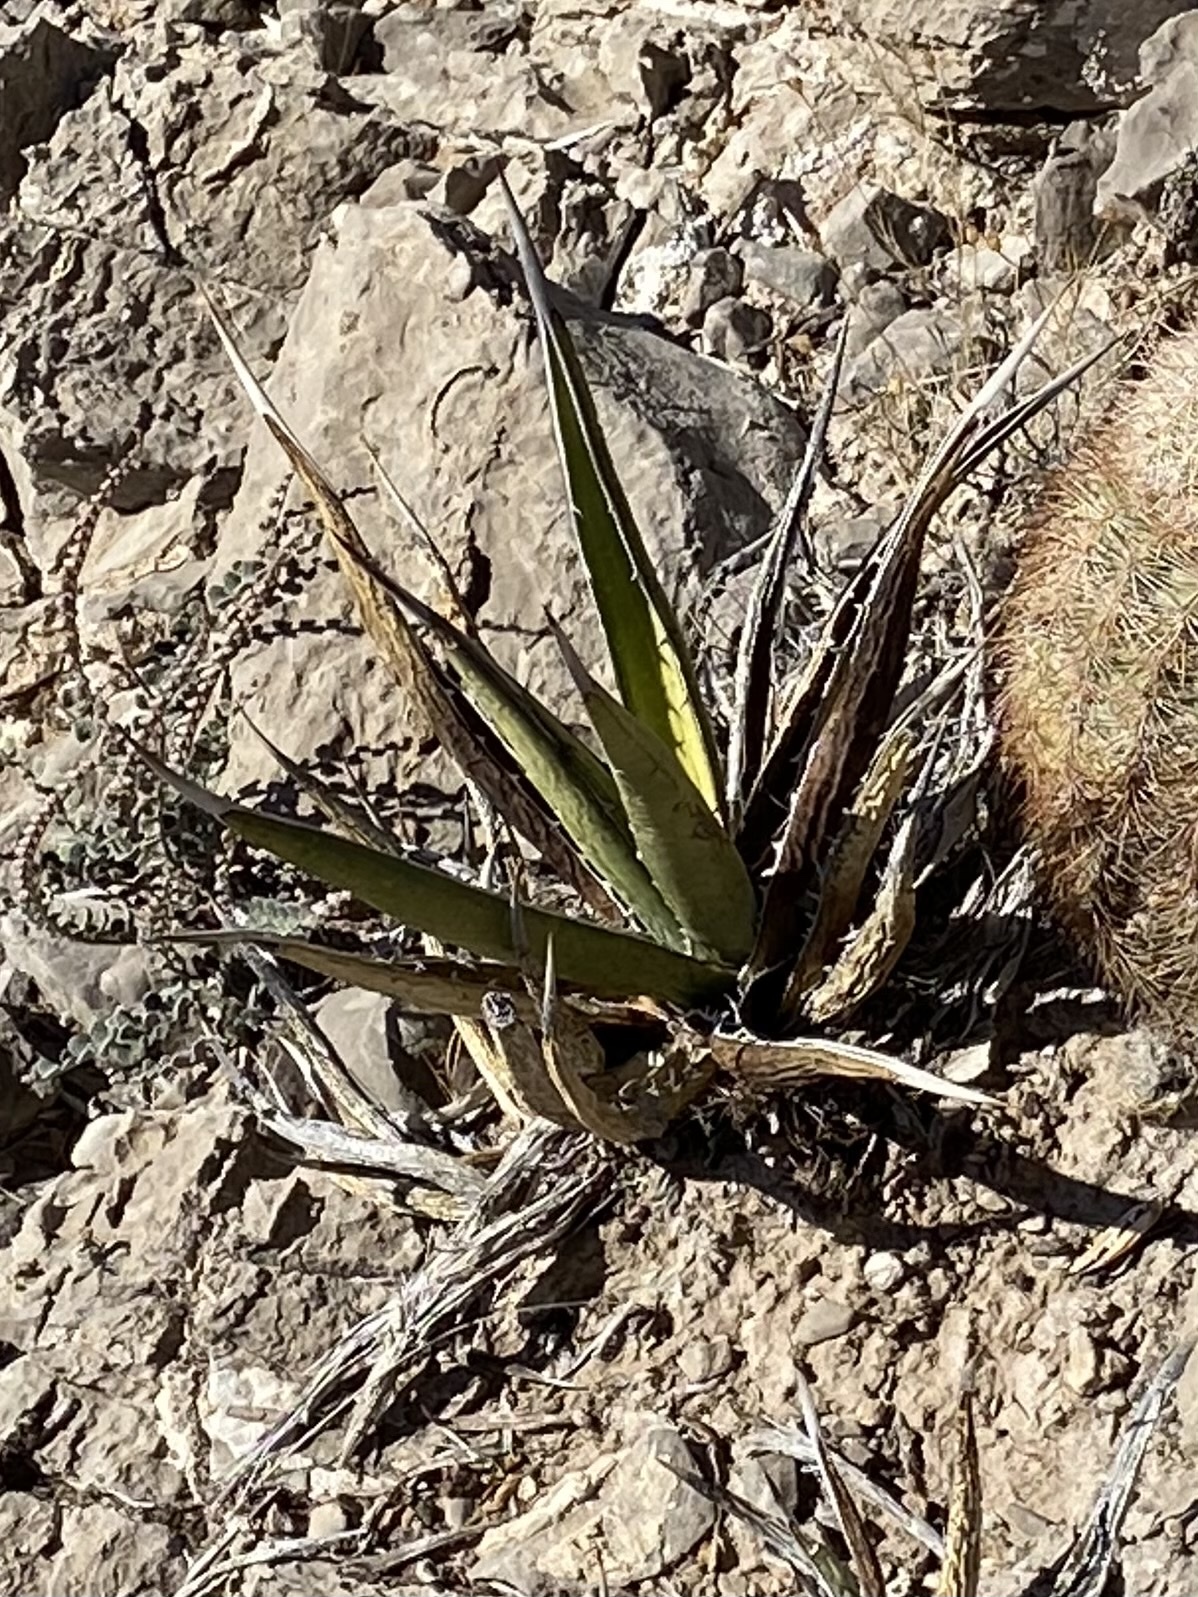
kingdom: Plantae
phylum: Tracheophyta
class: Liliopsida
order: Asparagales
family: Asparagaceae
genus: Agave
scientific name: Agave lechuguilla
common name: Lecheguilla agave
